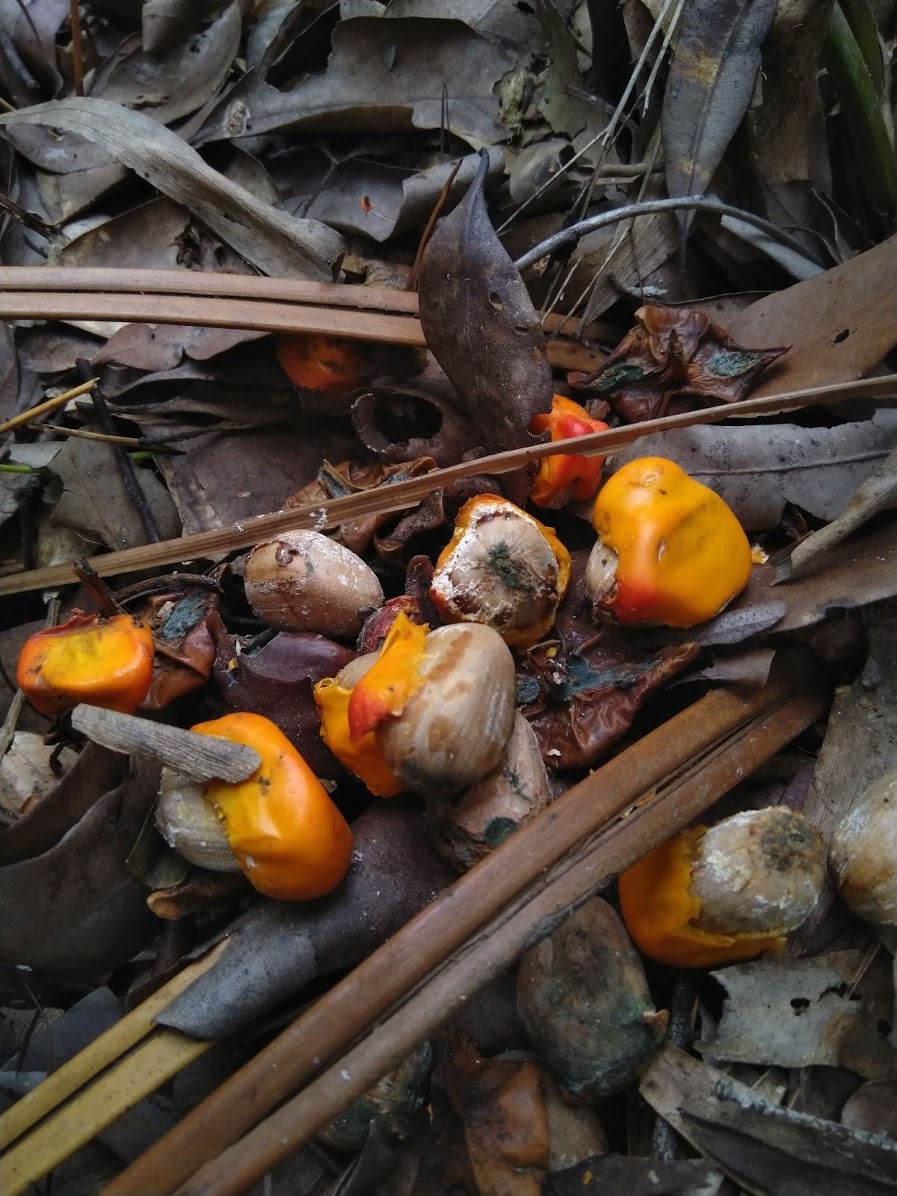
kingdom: Plantae
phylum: Tracheophyta
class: Cycadopsida
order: Cycadales
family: Zamiaceae
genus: Macrozamia
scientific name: Macrozamia mountperriensis
